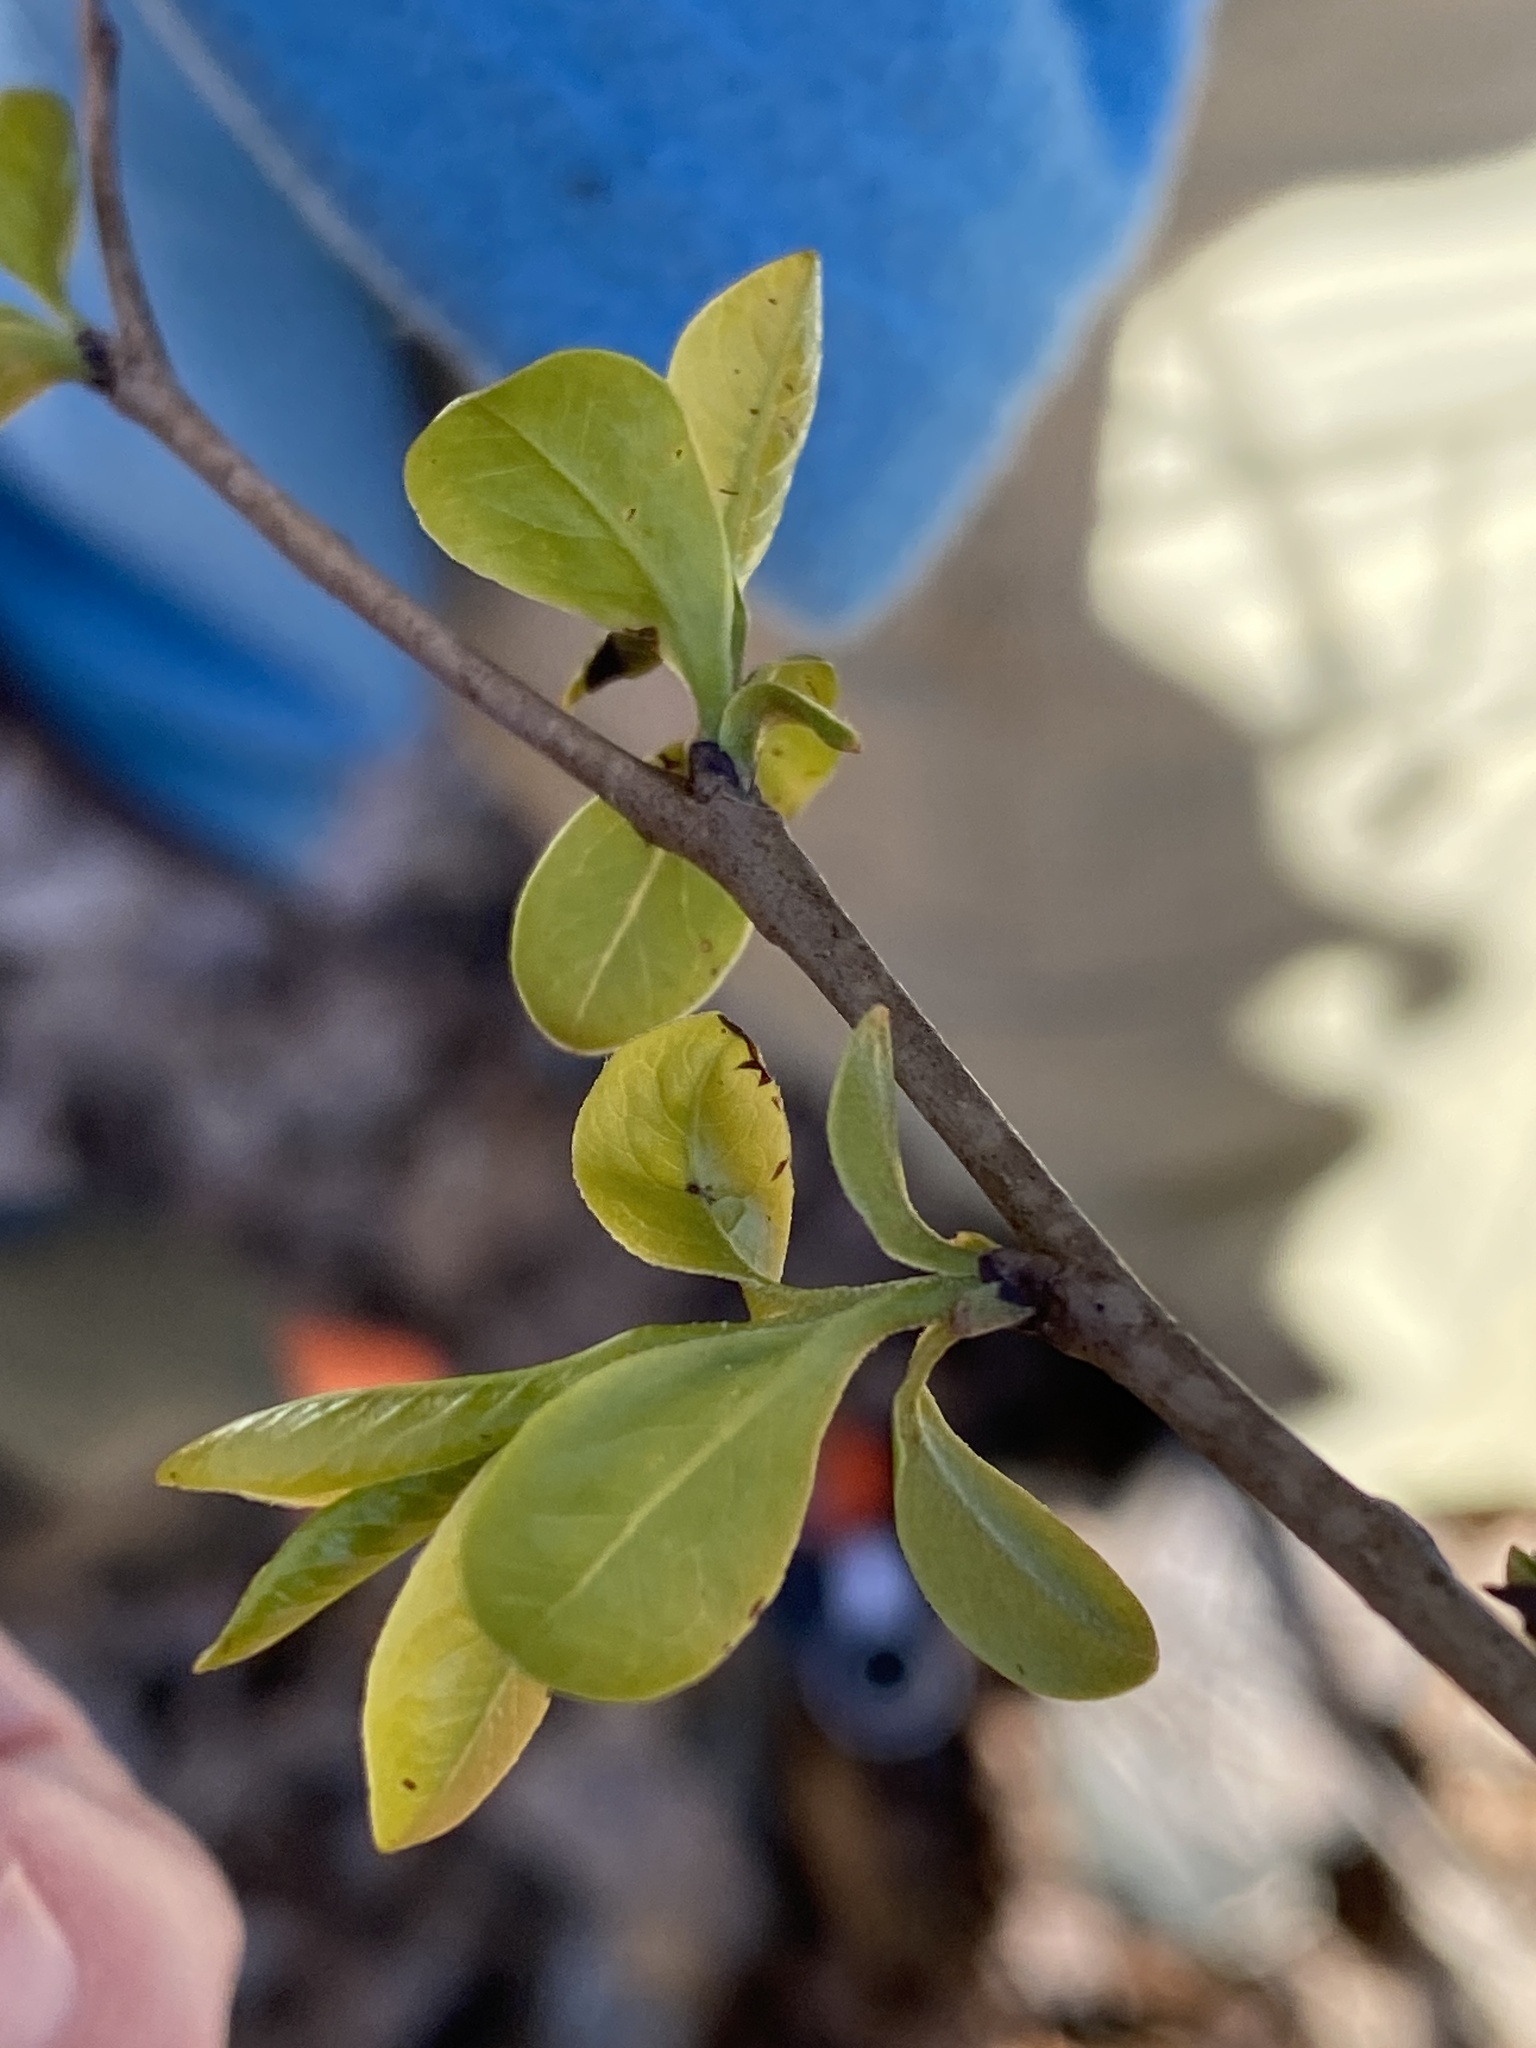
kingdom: Plantae
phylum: Tracheophyta
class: Magnoliopsida
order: Cornales
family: Nyssaceae
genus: Nyssa
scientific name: Nyssa sylvatica
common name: Black tupelo
